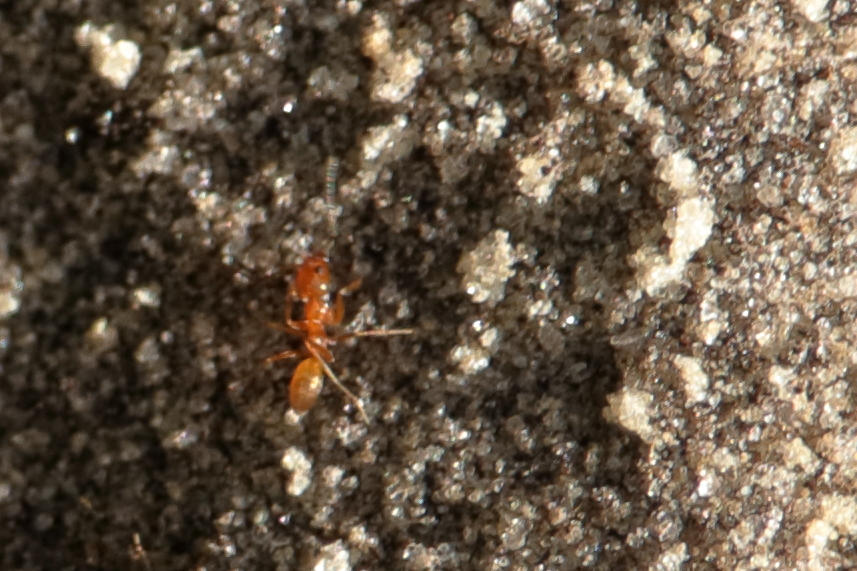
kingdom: Animalia
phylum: Arthropoda
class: Insecta
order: Hymenoptera
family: Formicidae
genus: Dorymyrmex
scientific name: Dorymyrmex bureni
